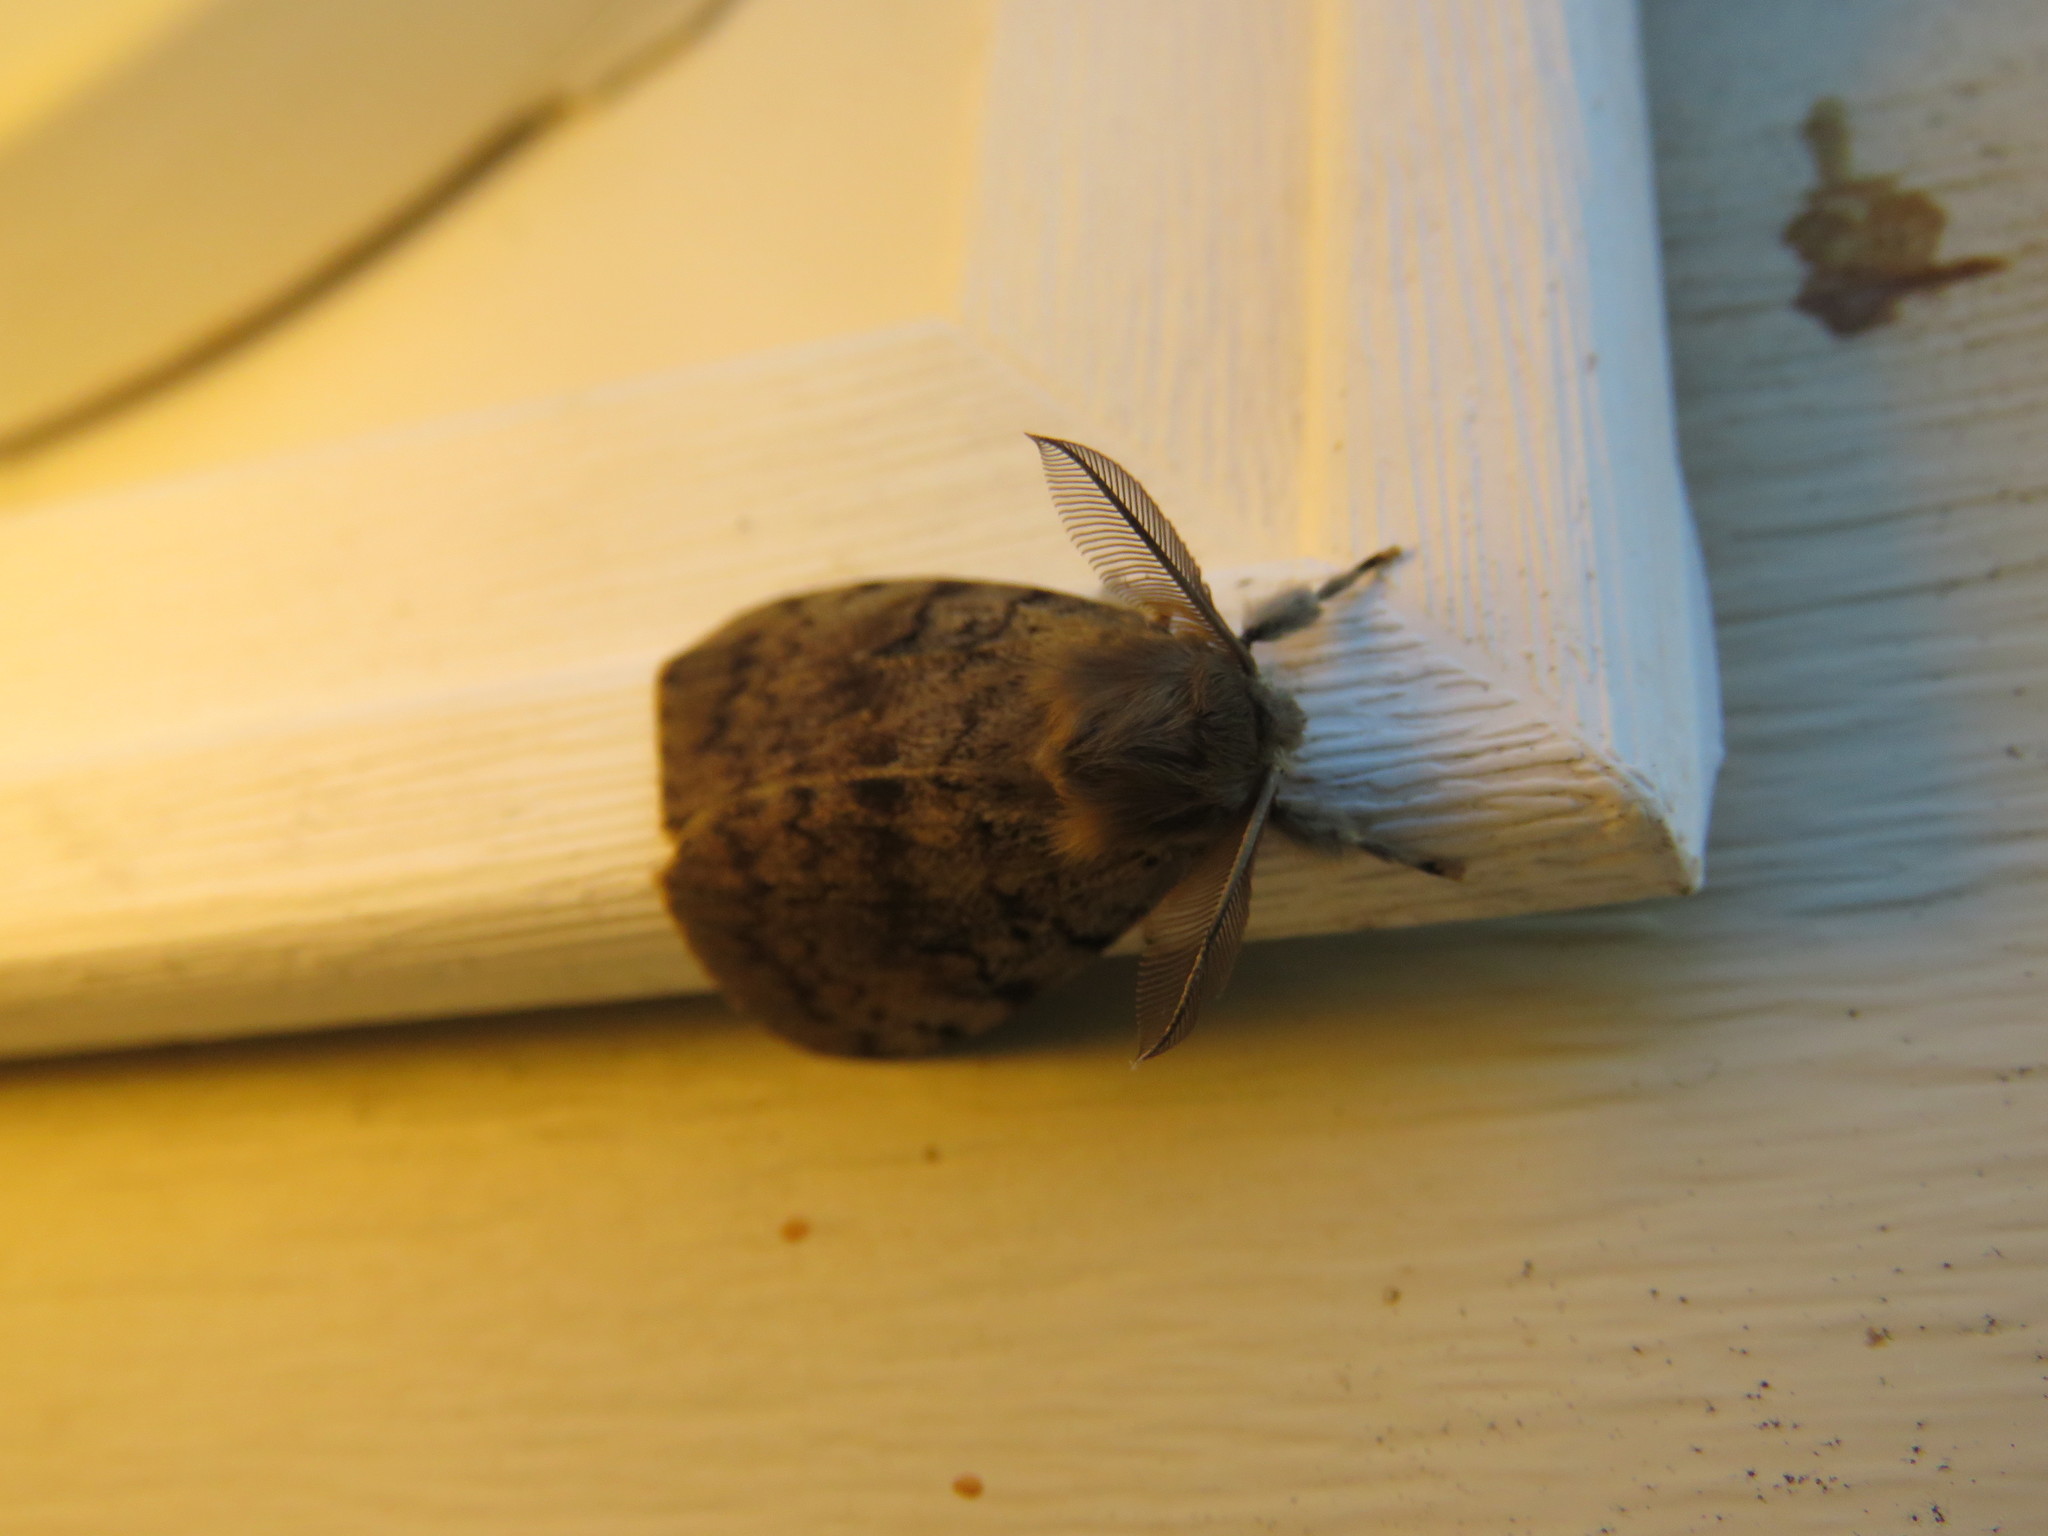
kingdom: Animalia
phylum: Arthropoda
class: Insecta
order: Lepidoptera
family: Erebidae
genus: Lymantria
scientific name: Lymantria dispar
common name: Gypsy moth
